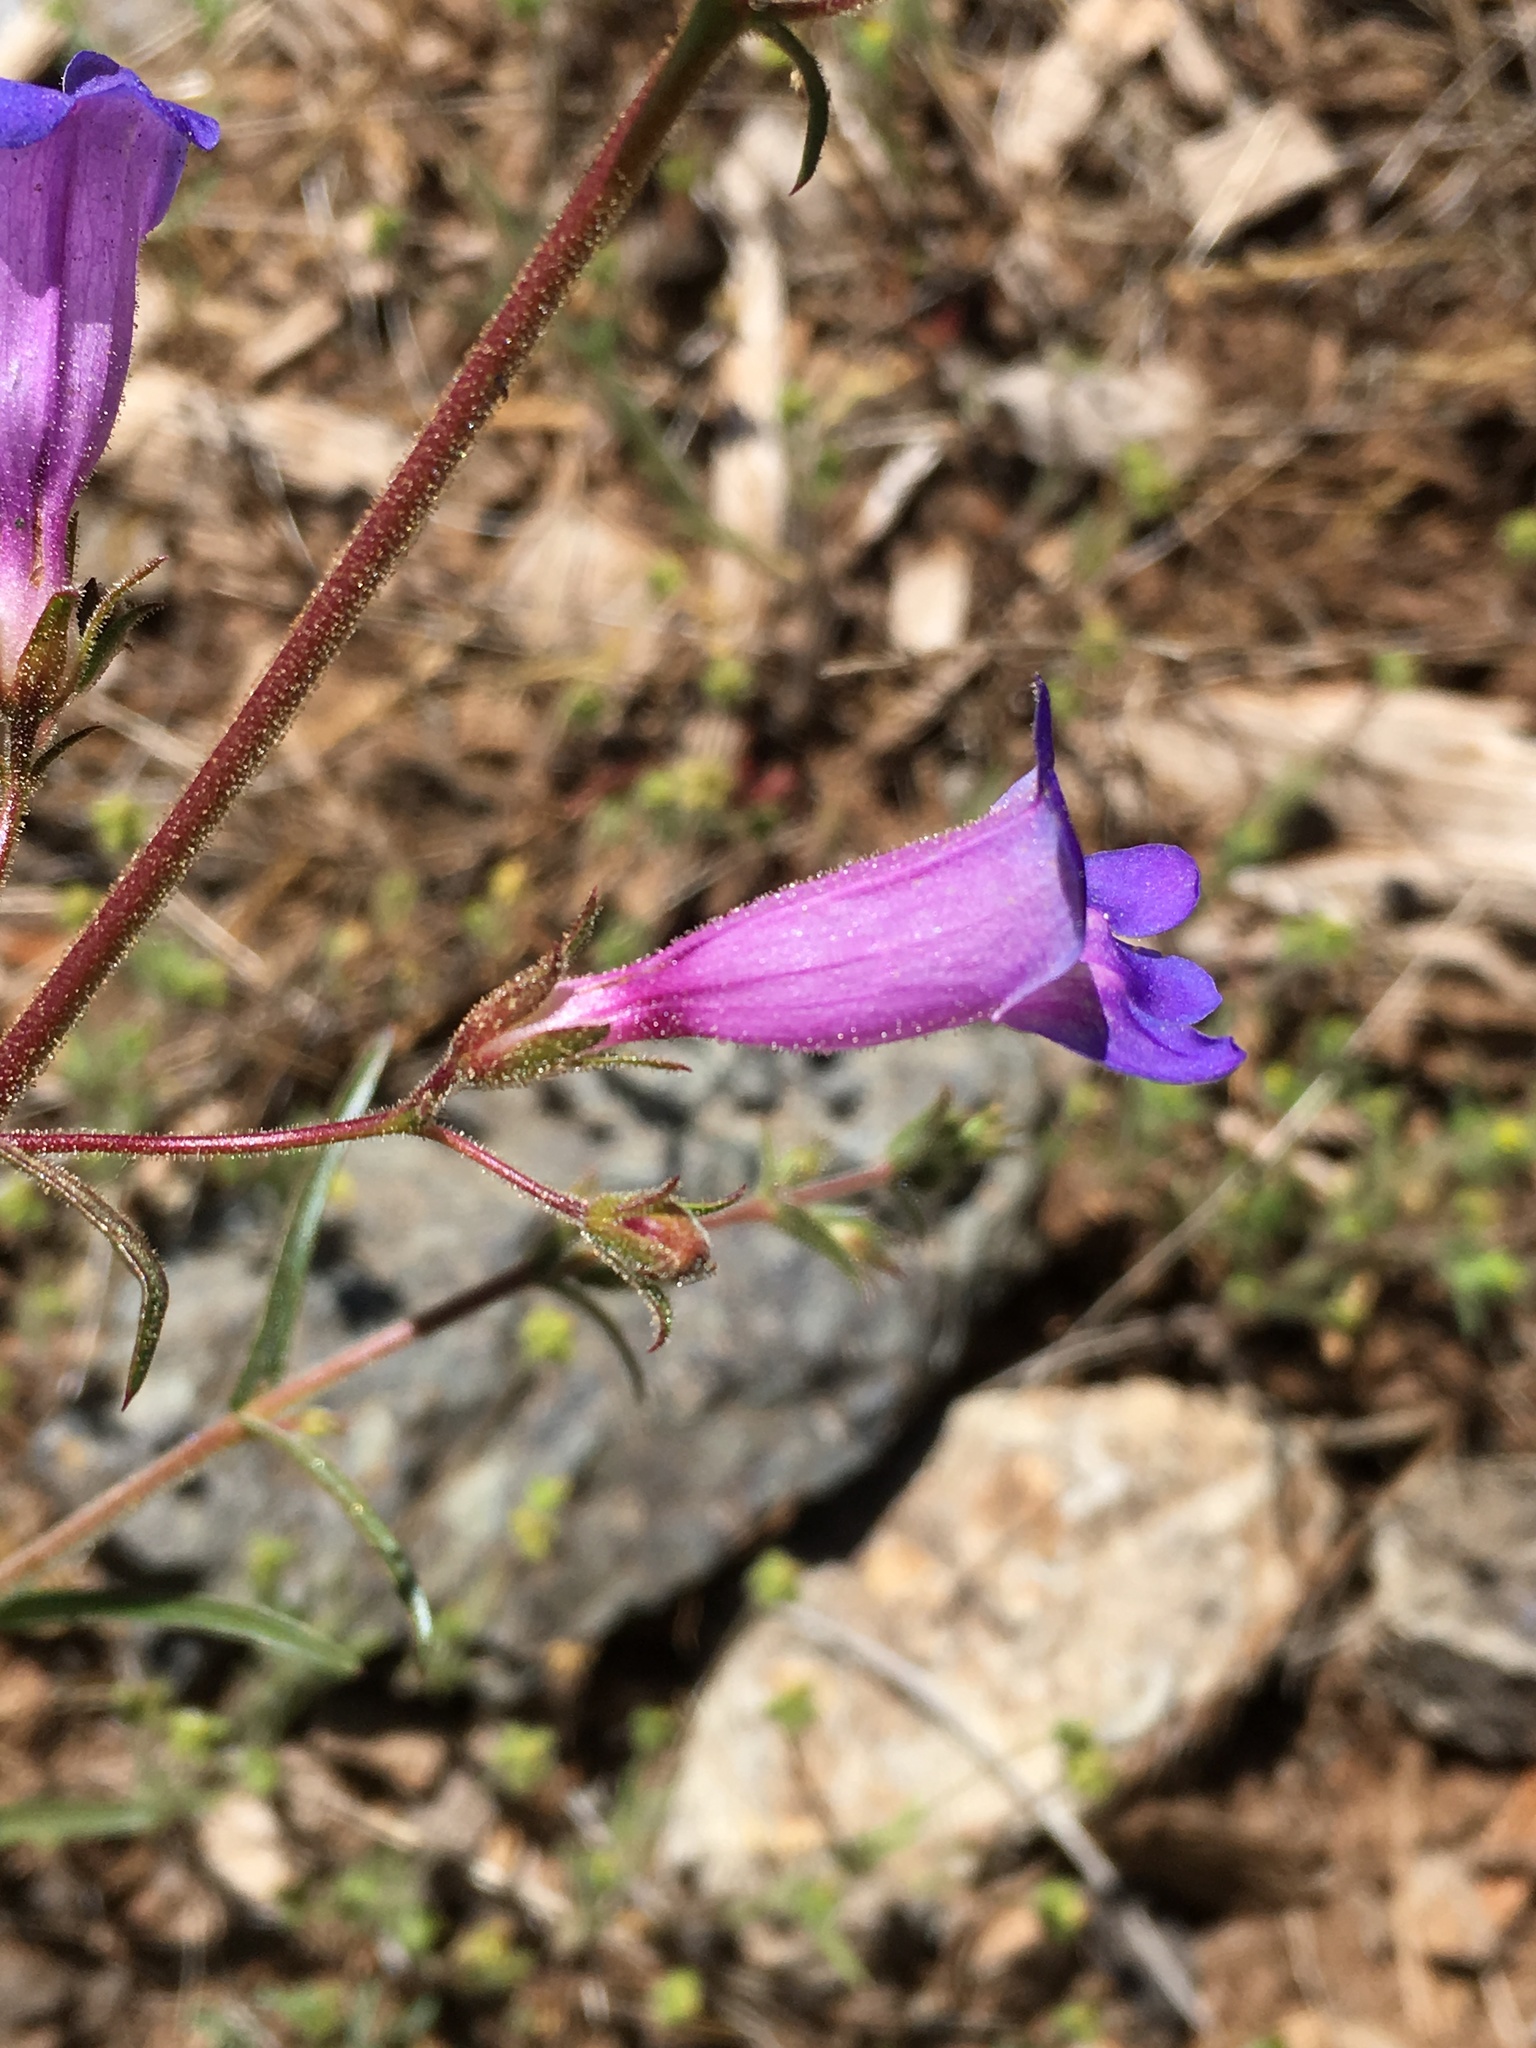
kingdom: Plantae
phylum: Tracheophyta
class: Magnoliopsida
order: Lamiales
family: Plantaginaceae
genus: Penstemon
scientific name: Penstemon roezlii
